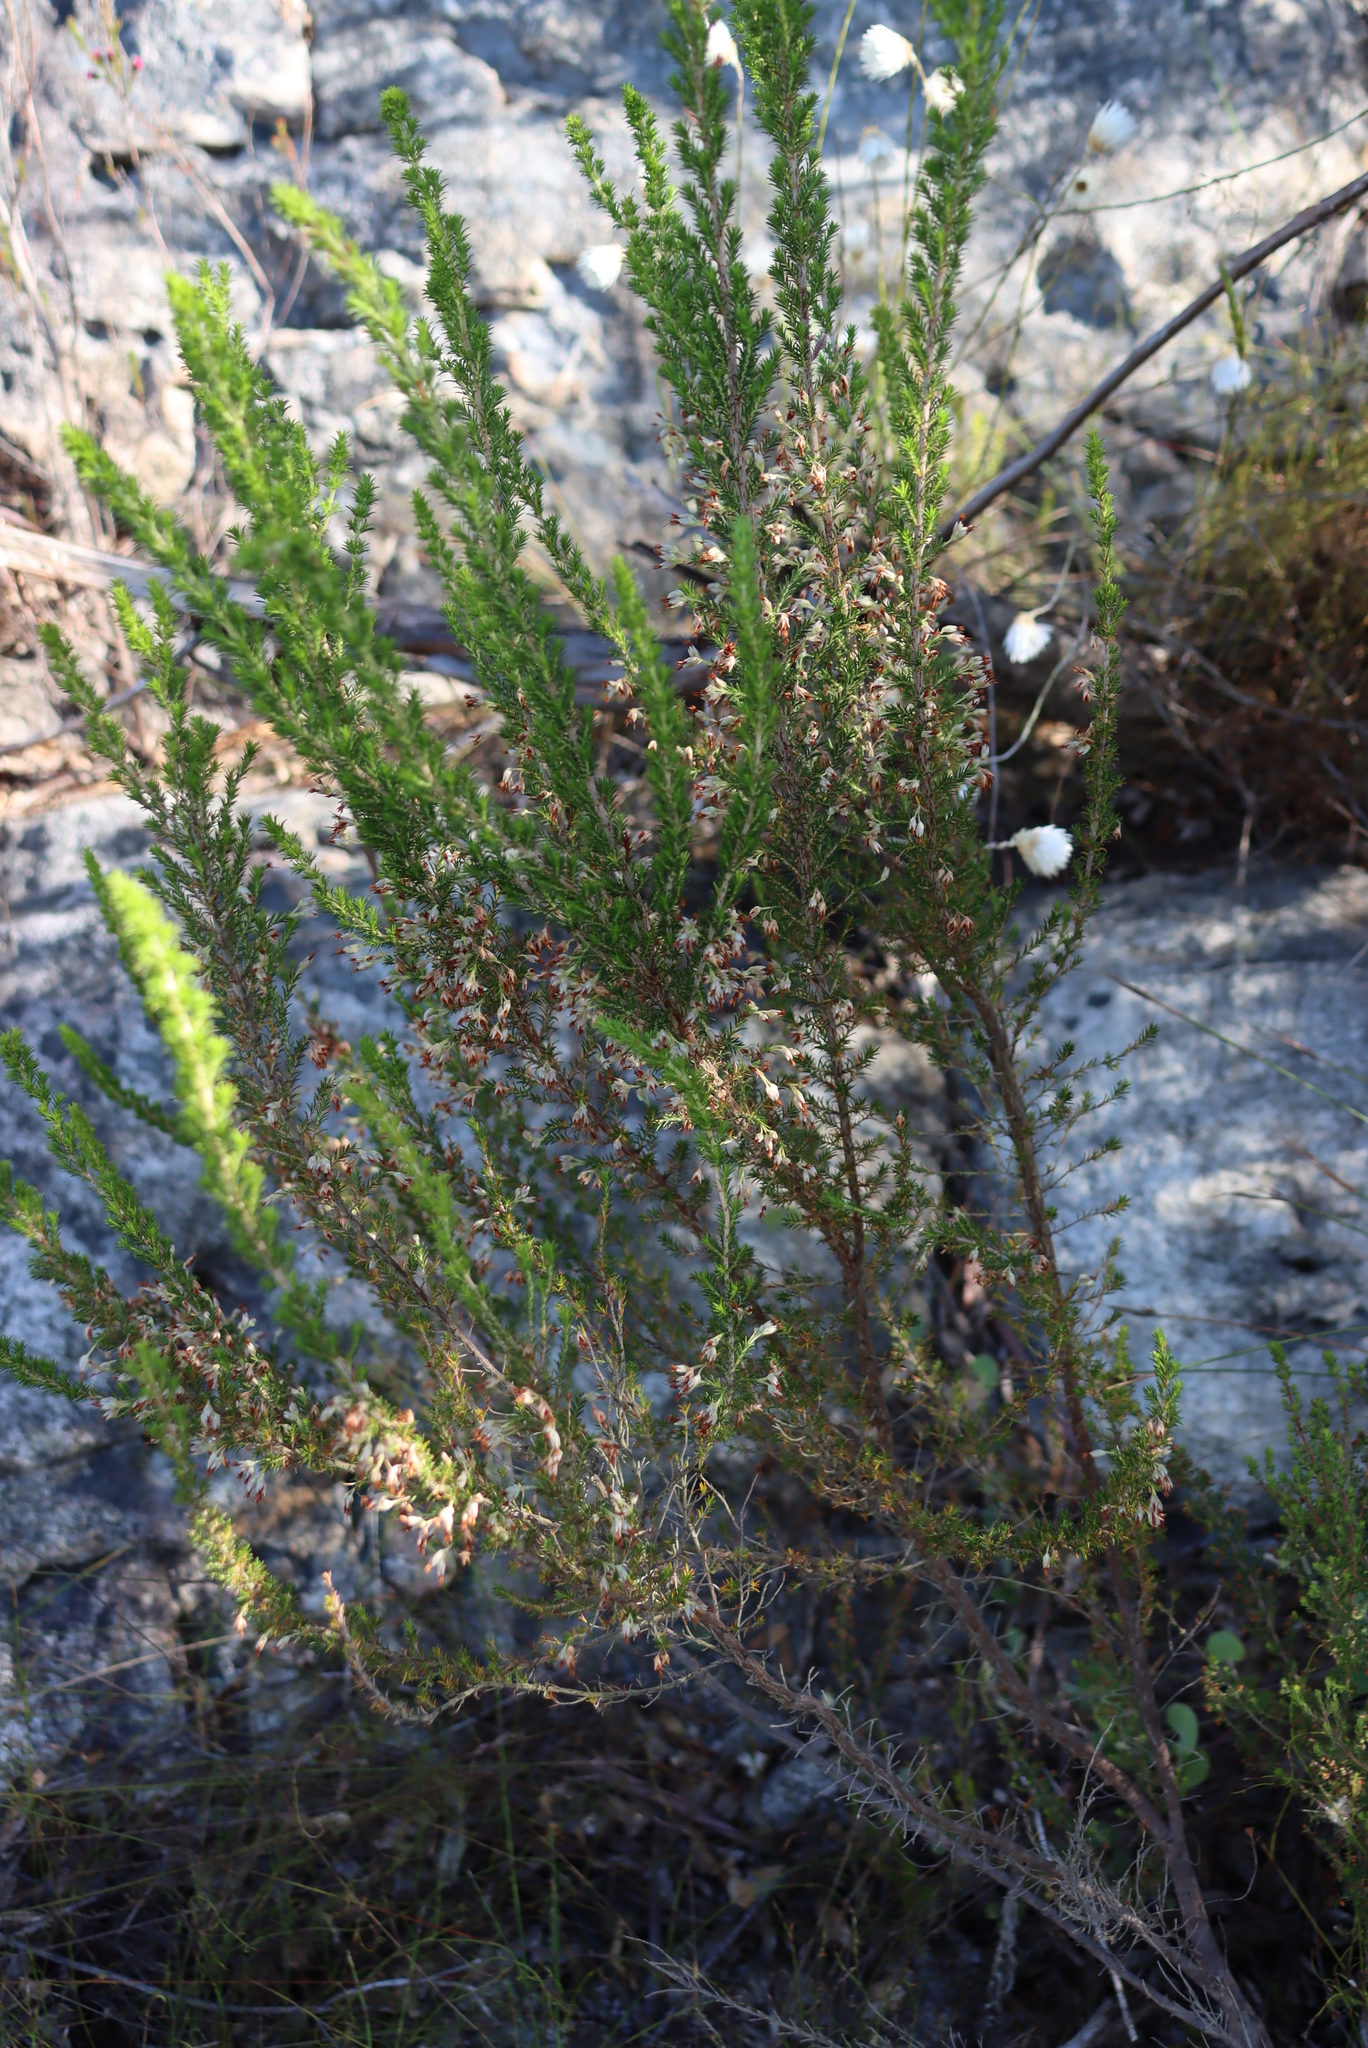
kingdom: Plantae
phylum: Tracheophyta
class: Magnoliopsida
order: Ericales
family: Ericaceae
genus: Erica
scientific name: Erica penicilliformis
